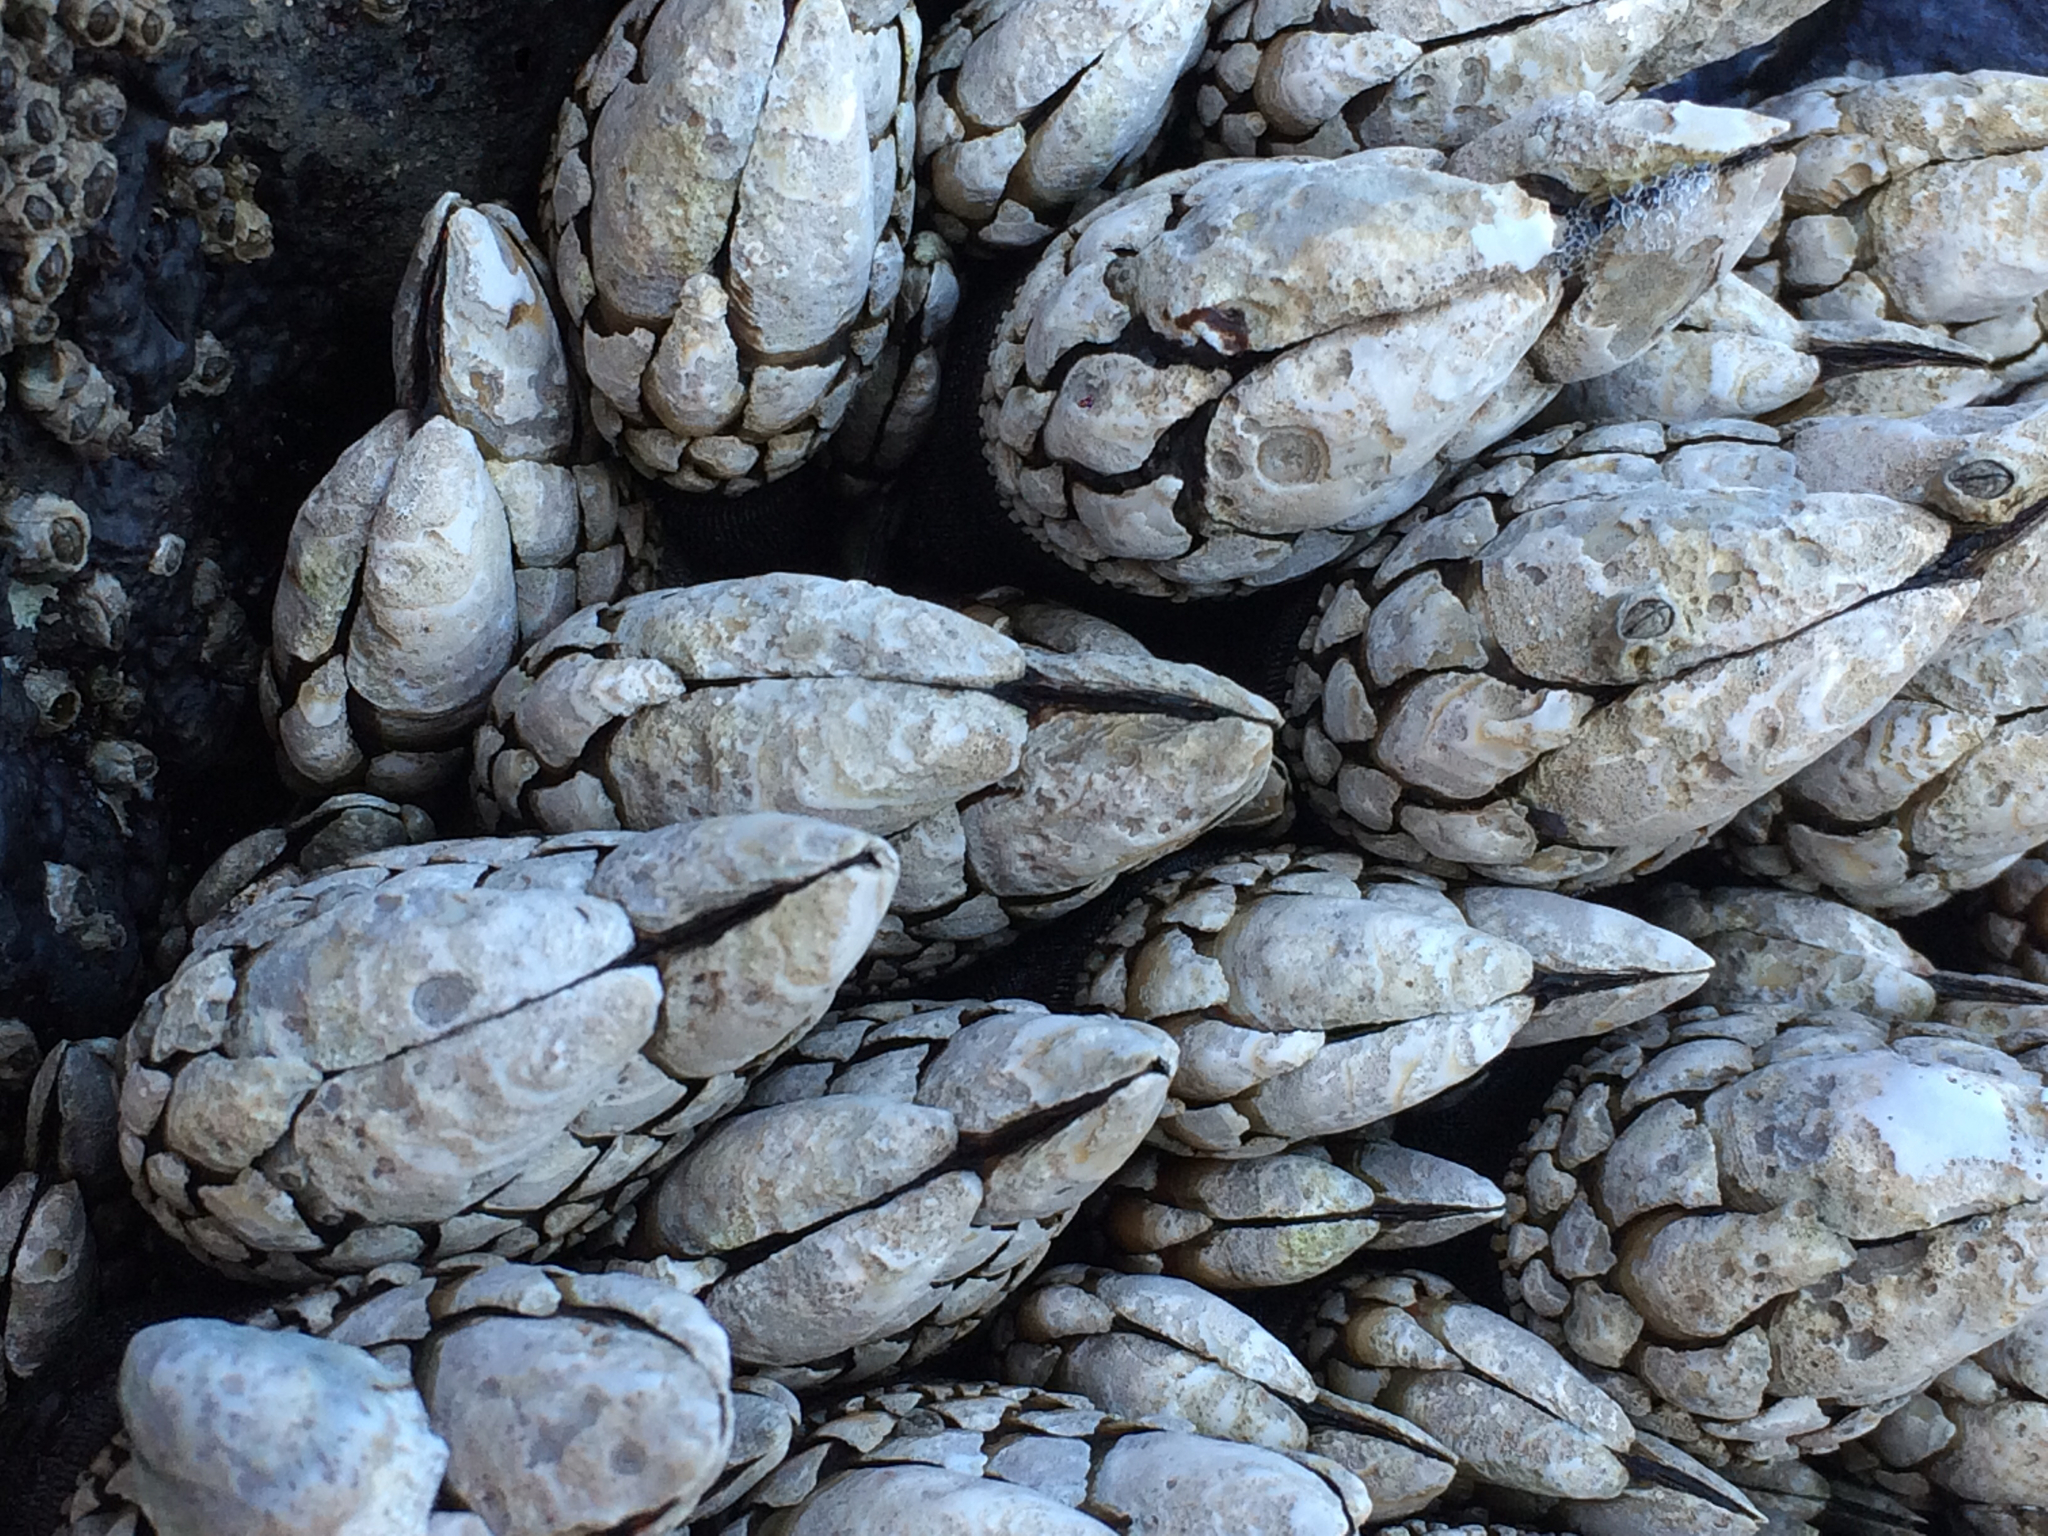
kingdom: Animalia
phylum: Arthropoda
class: Maxillopoda
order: Pedunculata
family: Pollicipedidae
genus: Pollicipes
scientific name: Pollicipes polymerus
